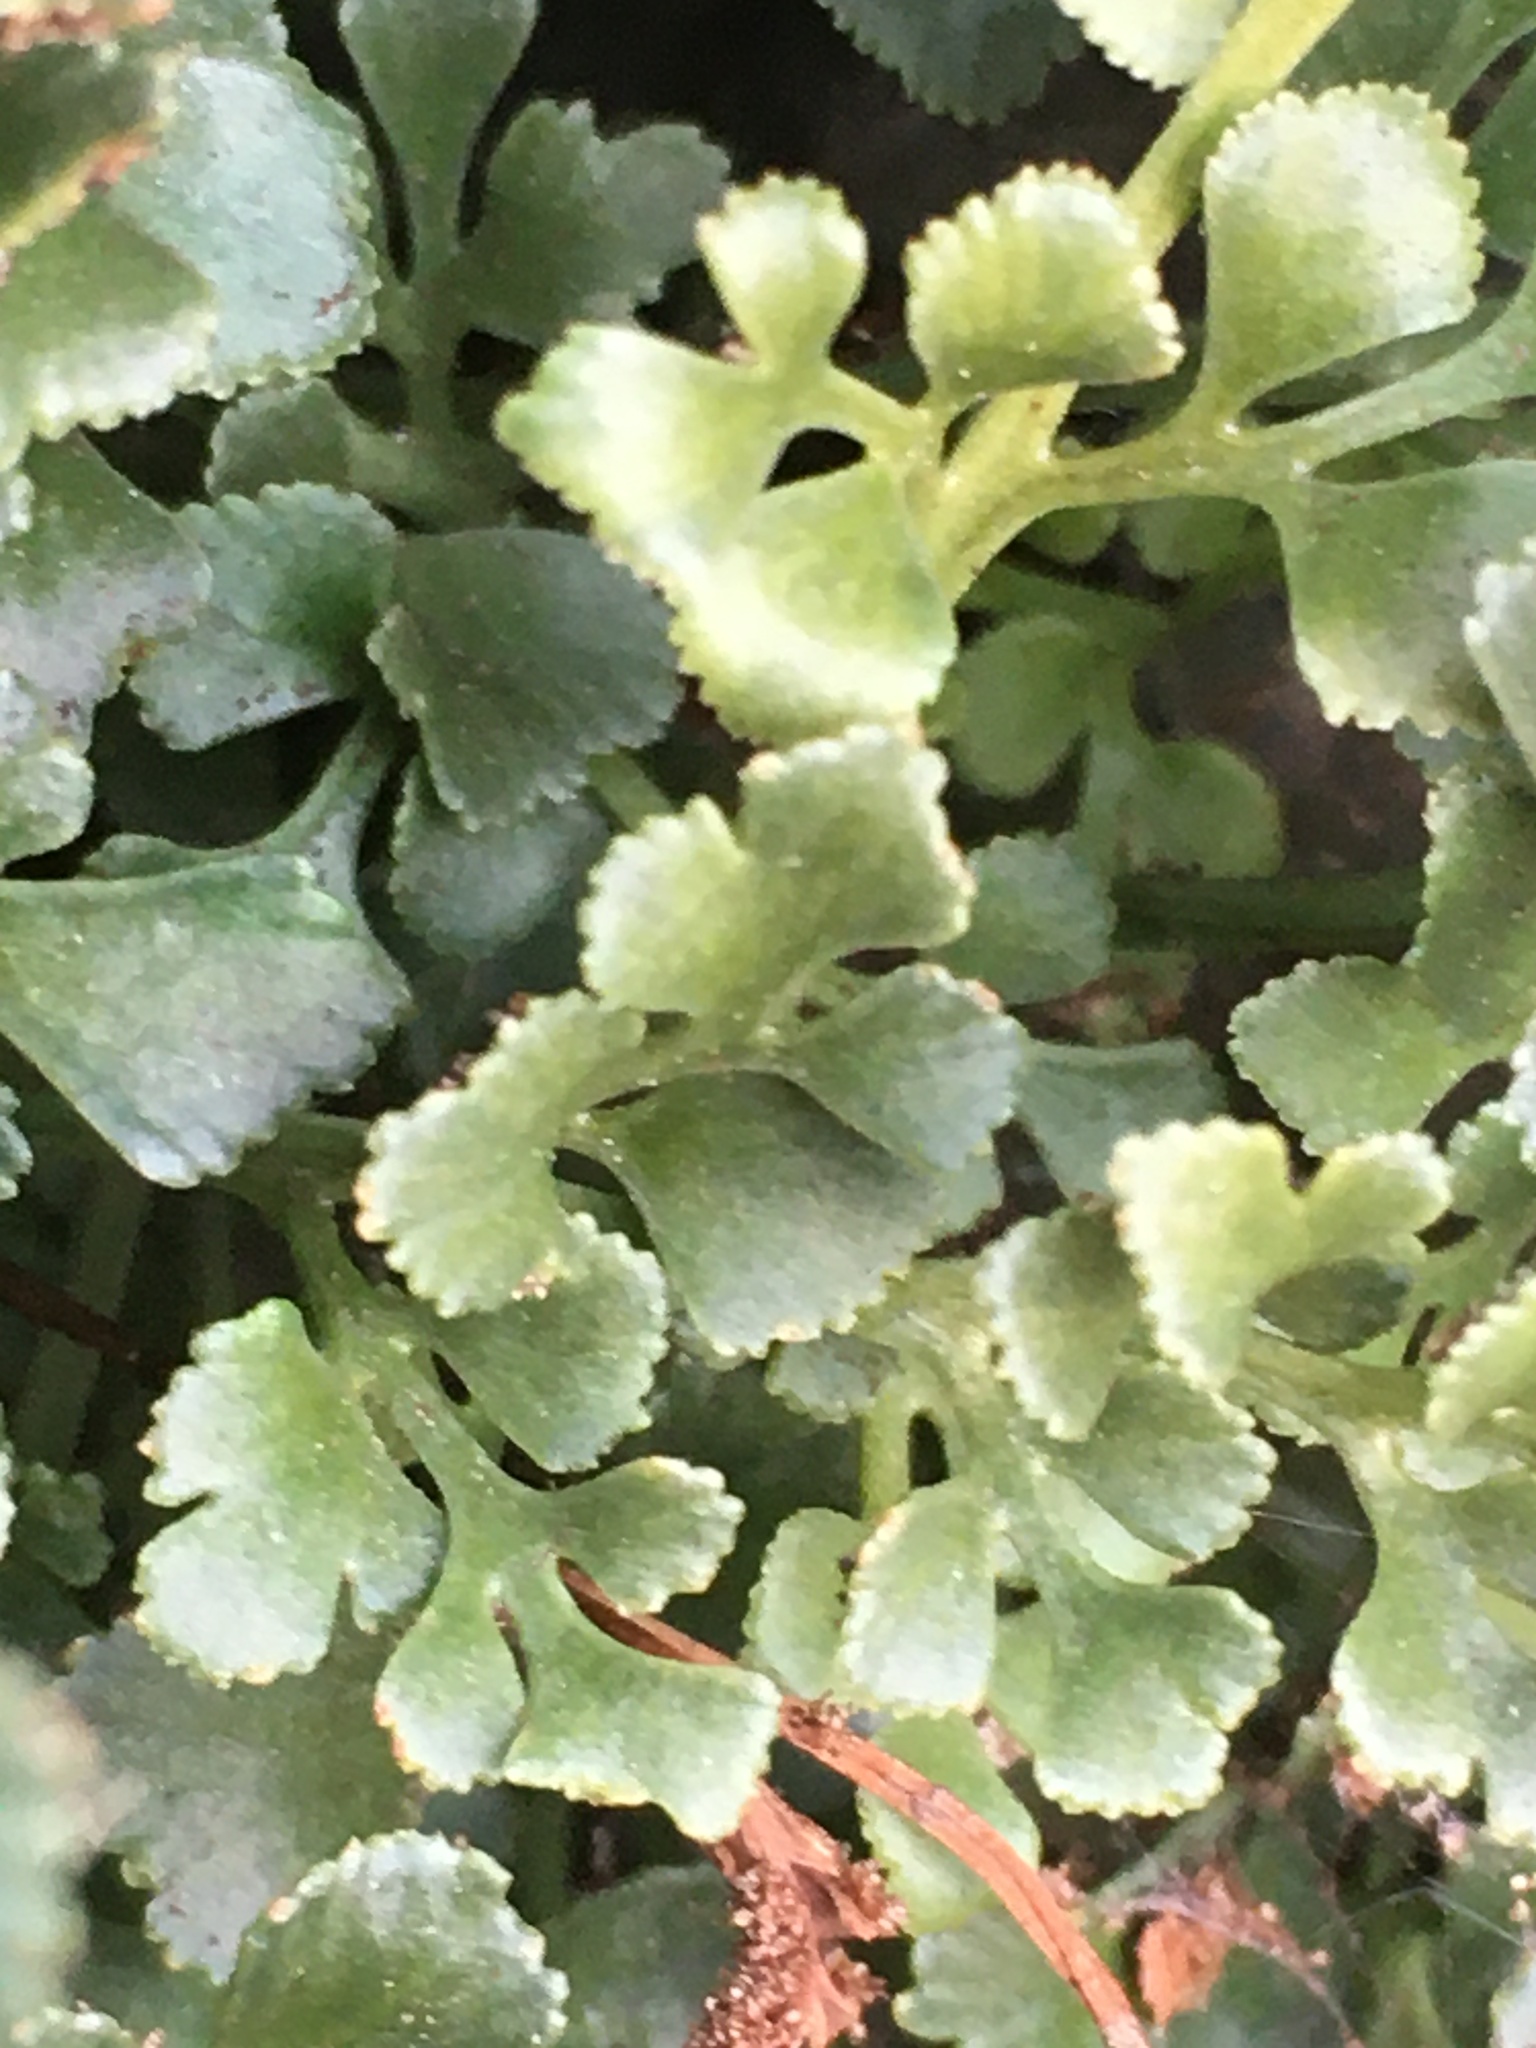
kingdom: Plantae
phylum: Tracheophyta
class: Polypodiopsida
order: Polypodiales
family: Aspleniaceae
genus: Asplenium
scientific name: Asplenium ruta-muraria
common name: Wall-rue
